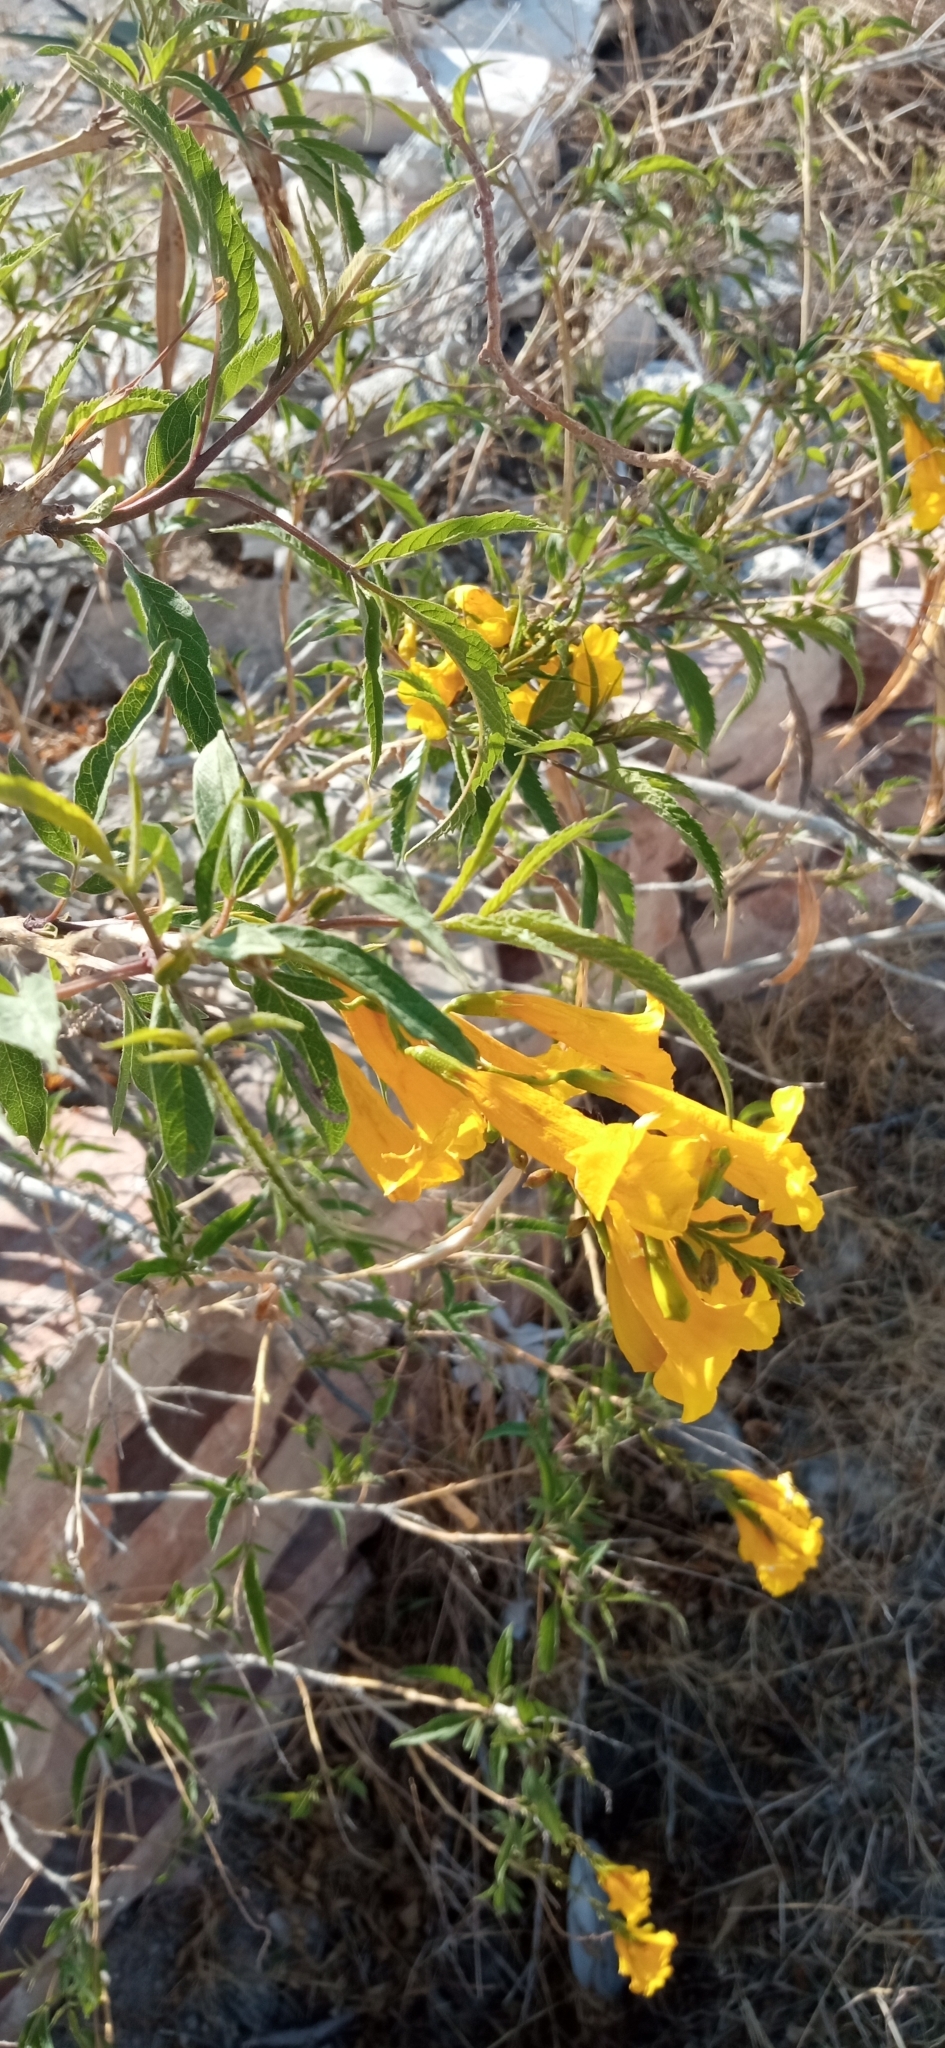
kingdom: Plantae
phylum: Tracheophyta
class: Magnoliopsida
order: Lamiales
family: Bignoniaceae
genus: Tecoma
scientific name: Tecoma stans
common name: Yellow trumpetbush
